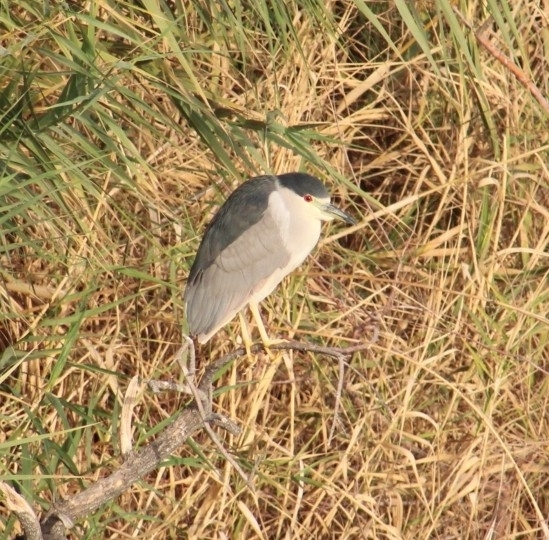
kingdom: Animalia
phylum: Chordata
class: Aves
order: Pelecaniformes
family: Ardeidae
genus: Nycticorax
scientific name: Nycticorax nycticorax
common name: Black-crowned night heron
